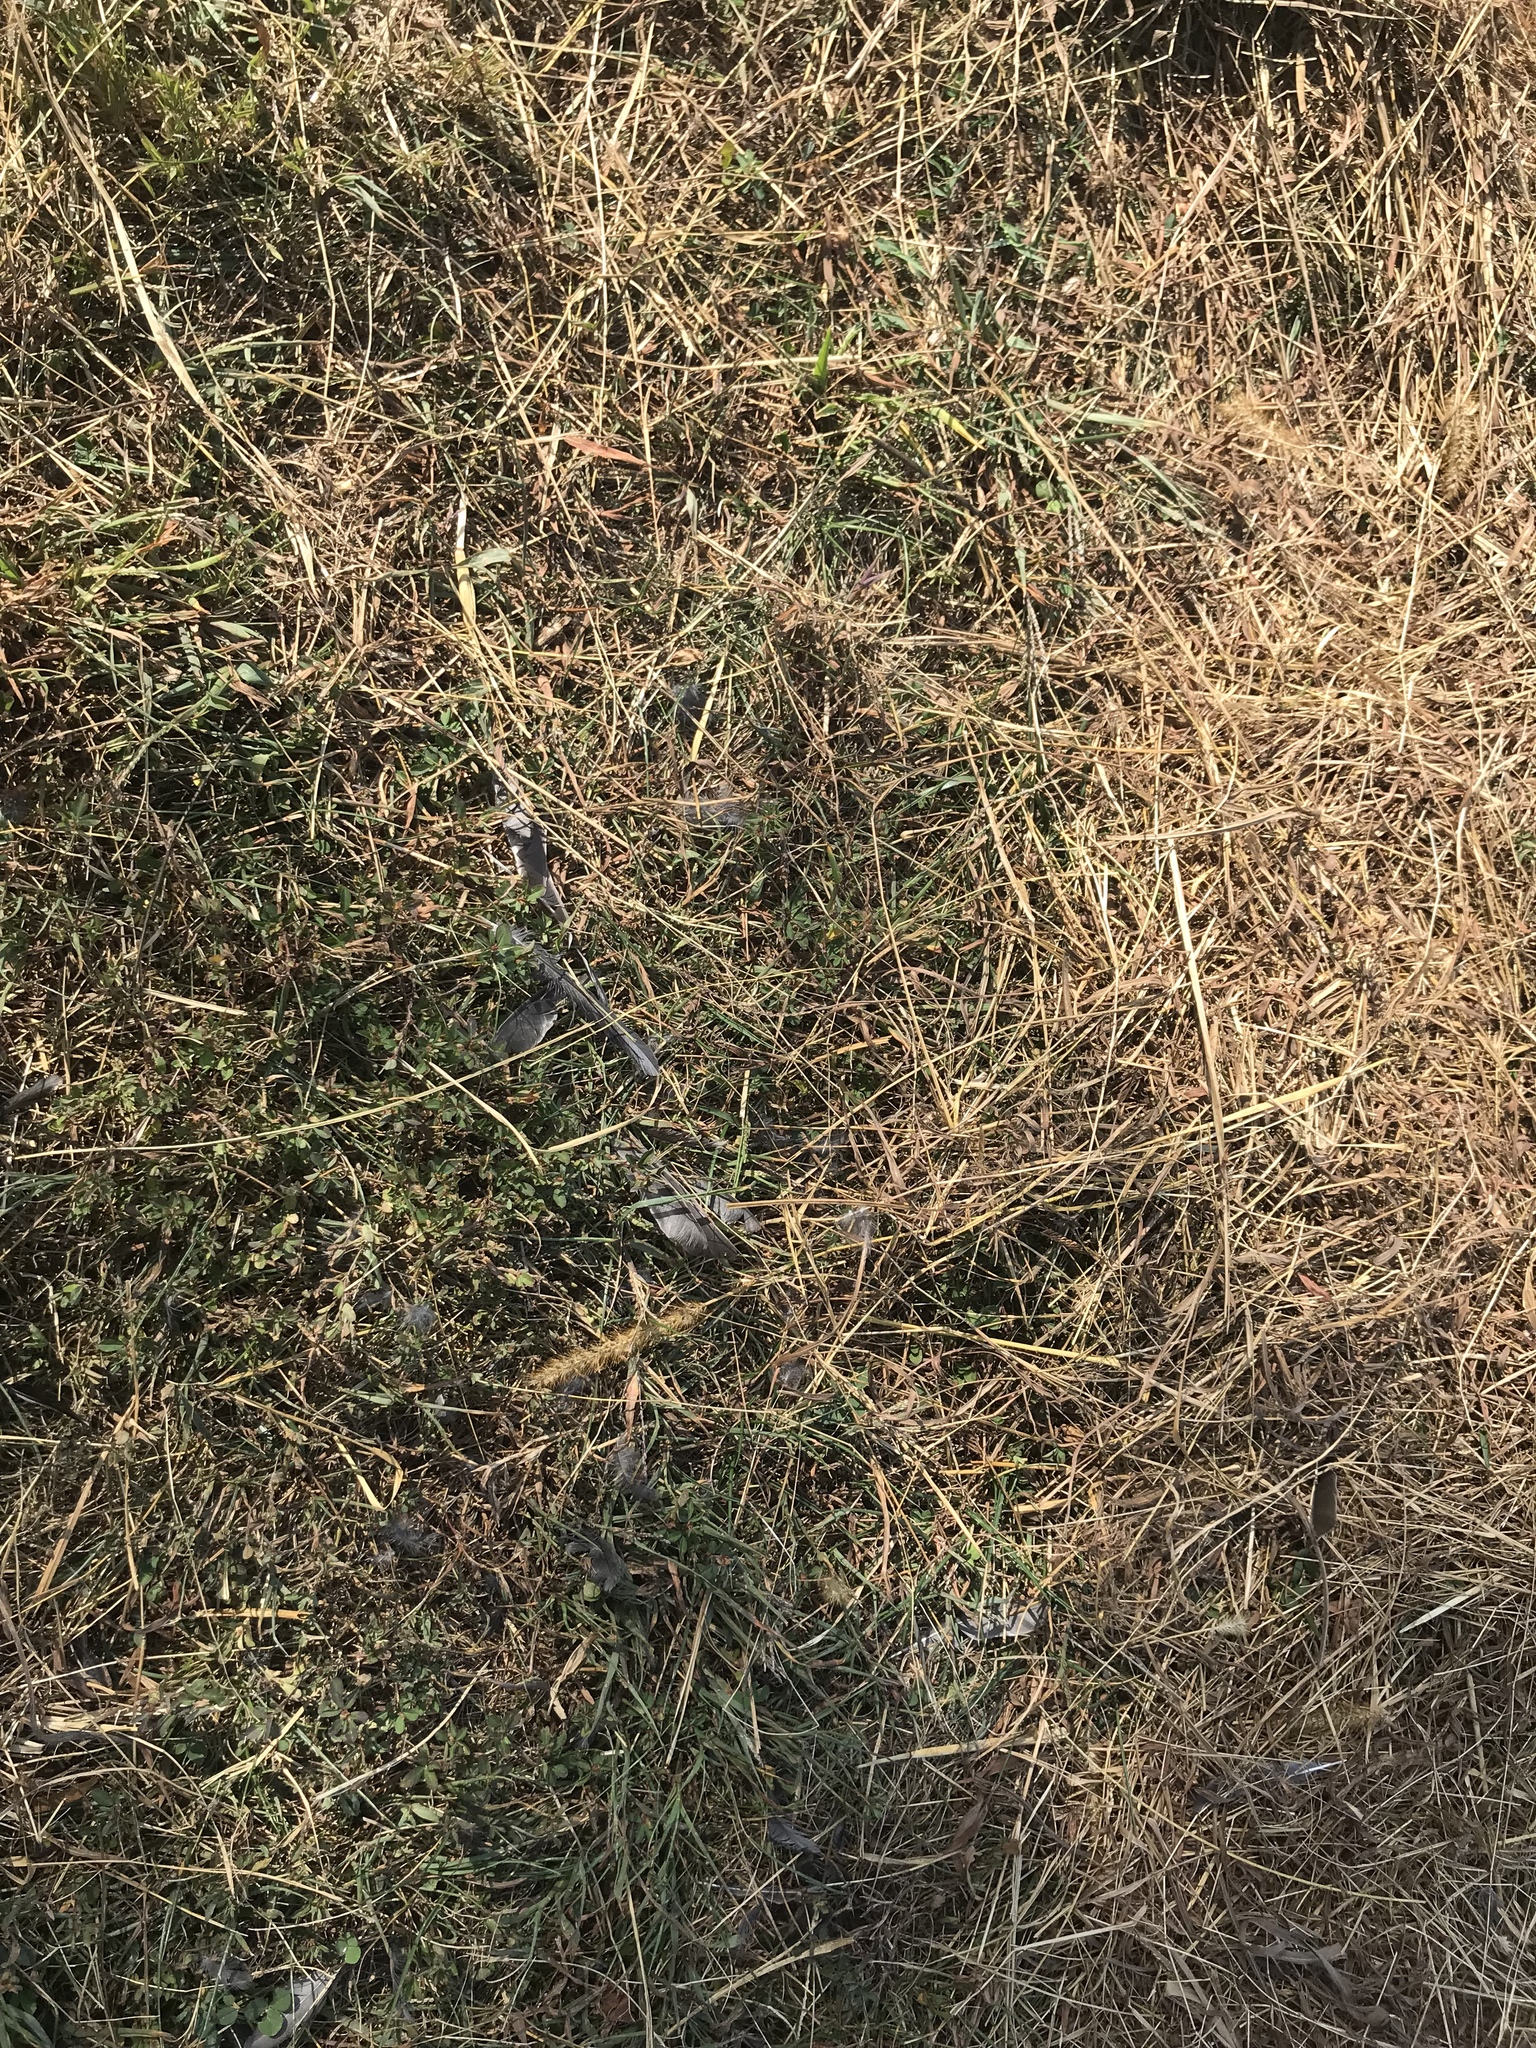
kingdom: Animalia
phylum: Chordata
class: Aves
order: Passeriformes
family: Mimidae
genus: Dumetella
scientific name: Dumetella carolinensis
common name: Gray catbird
